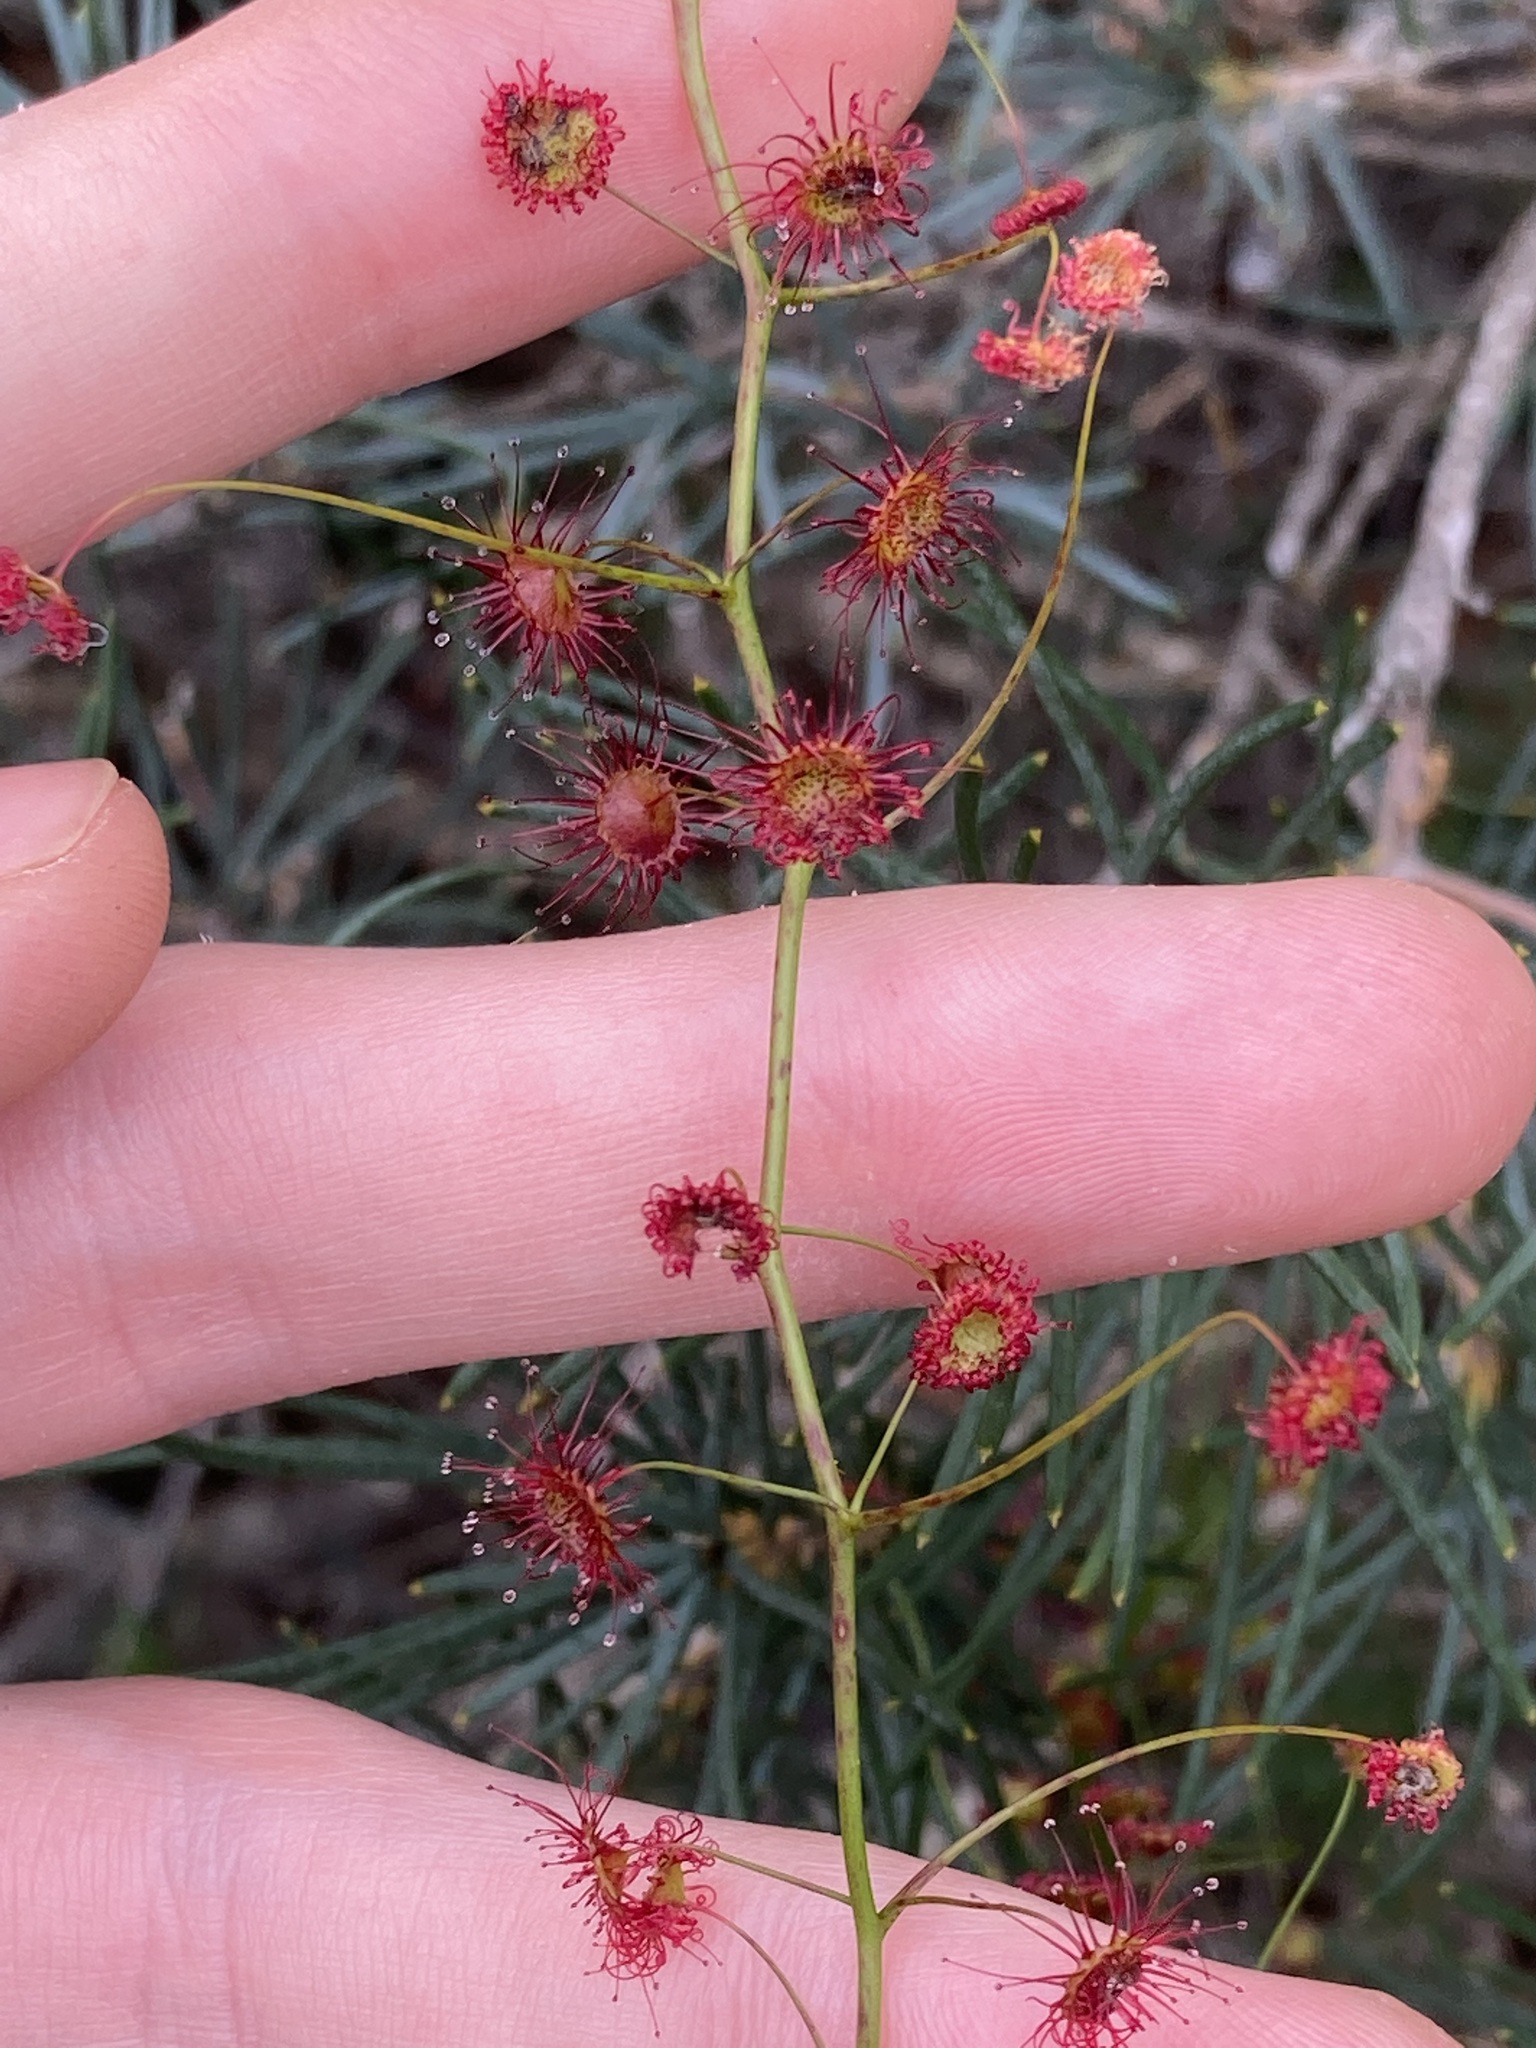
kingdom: Plantae
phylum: Tracheophyta
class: Magnoliopsida
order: Caryophyllales
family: Droseraceae
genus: Drosera
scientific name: Drosera pallida
